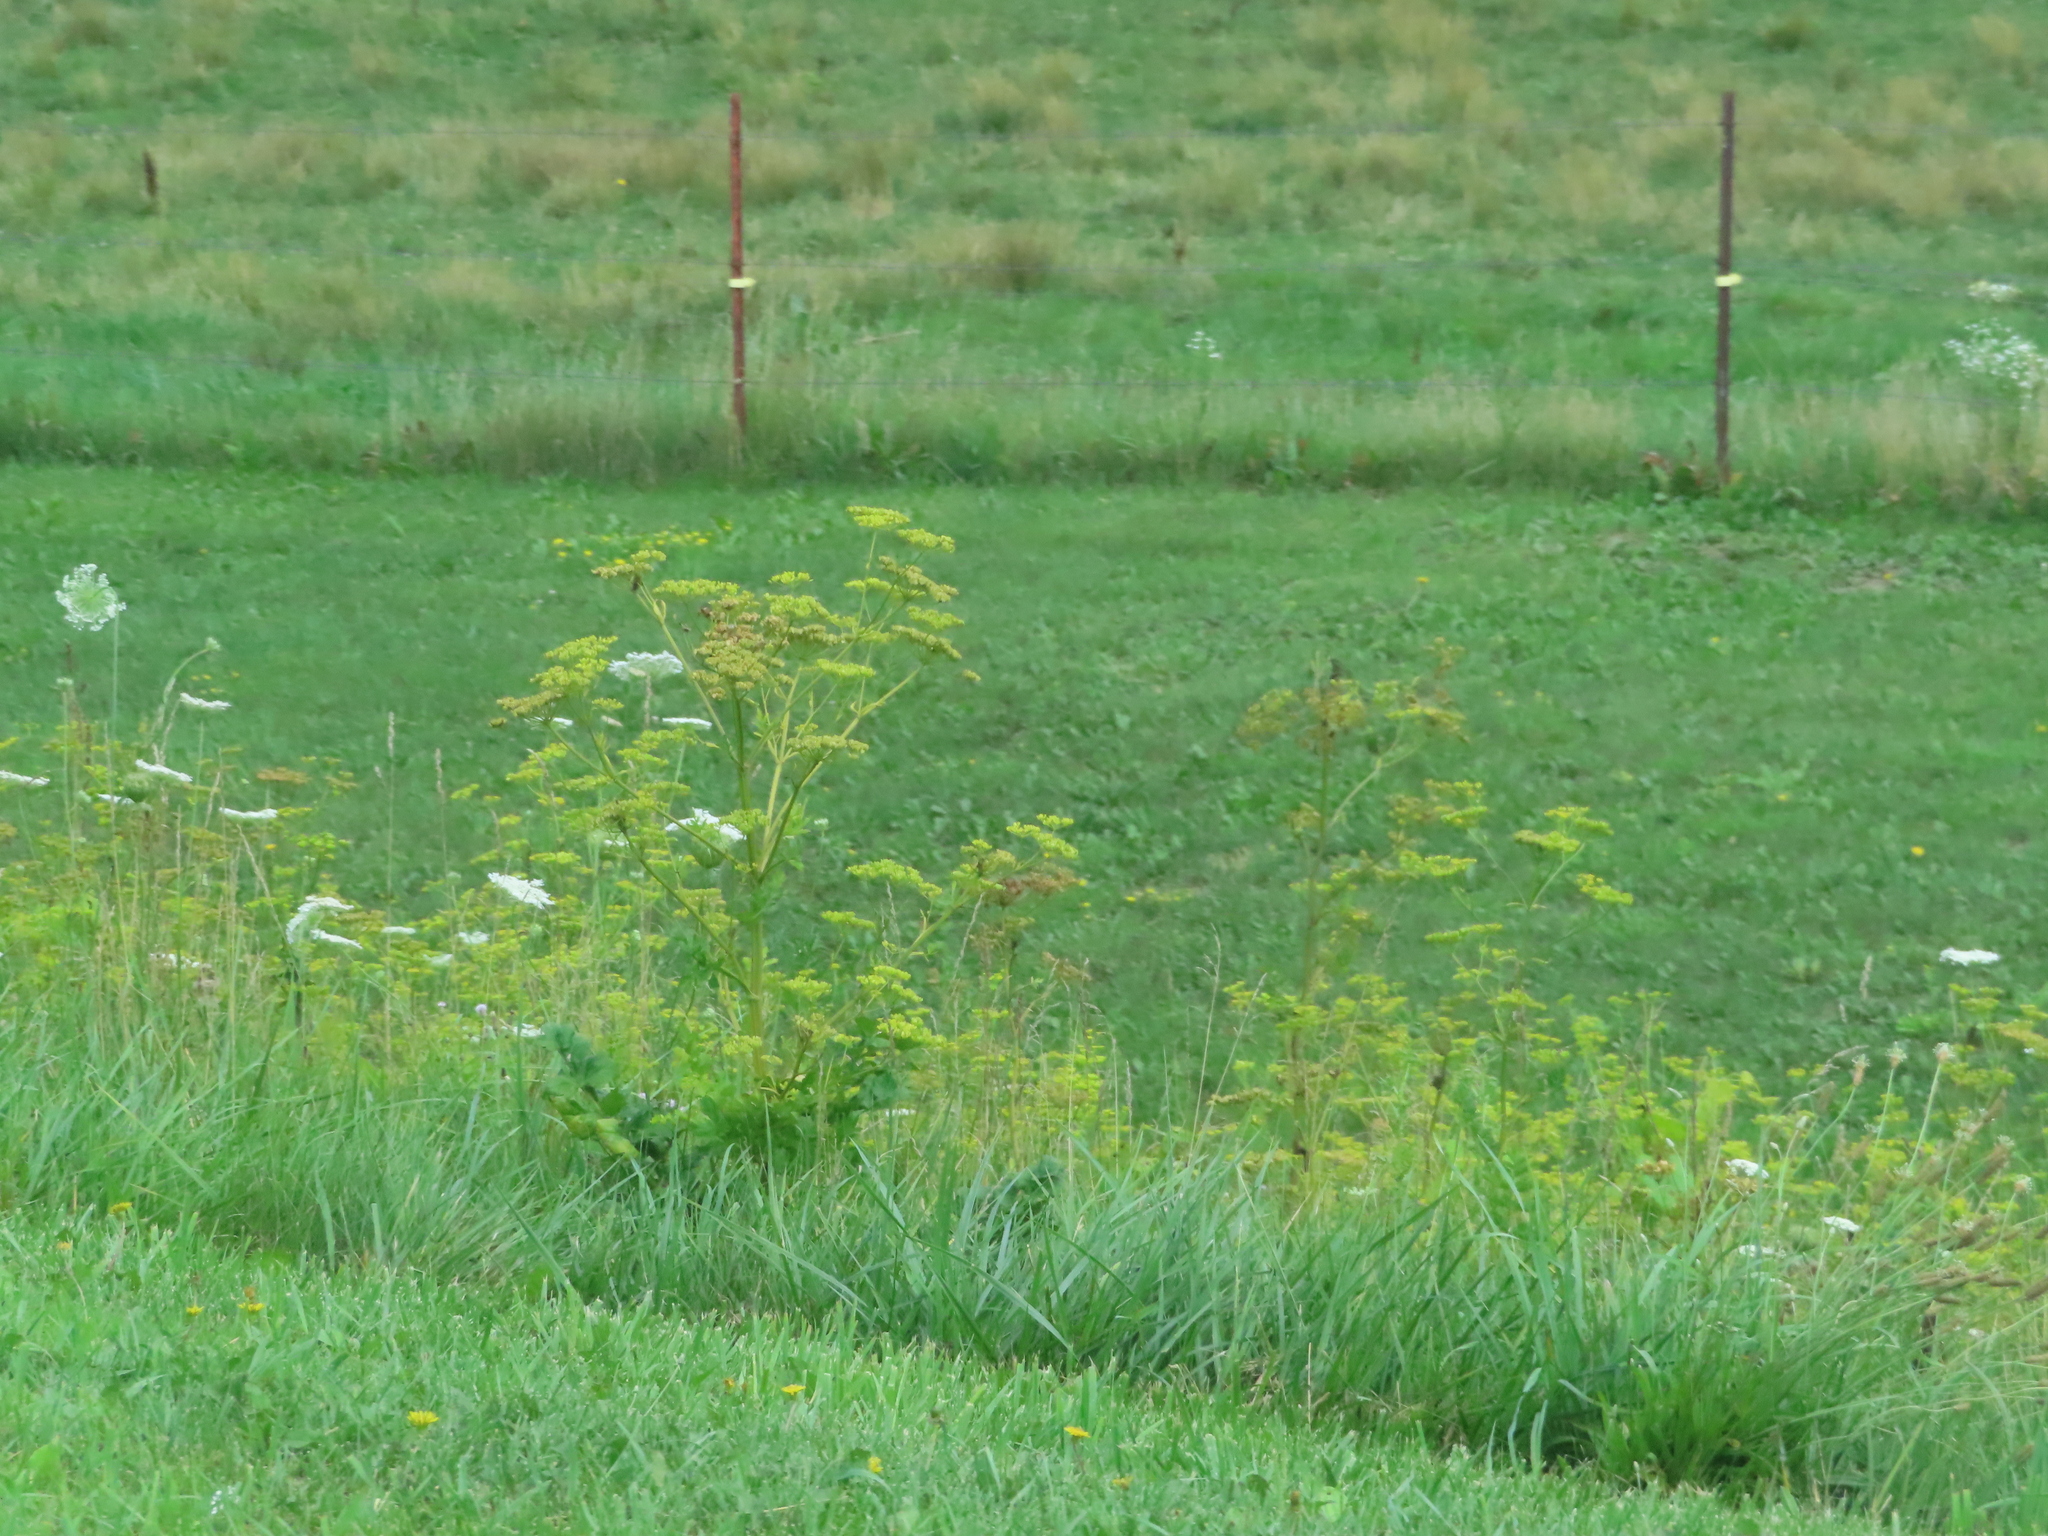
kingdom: Plantae
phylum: Tracheophyta
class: Magnoliopsida
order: Apiales
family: Apiaceae
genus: Pastinaca
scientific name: Pastinaca sativa
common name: Wild parsnip
